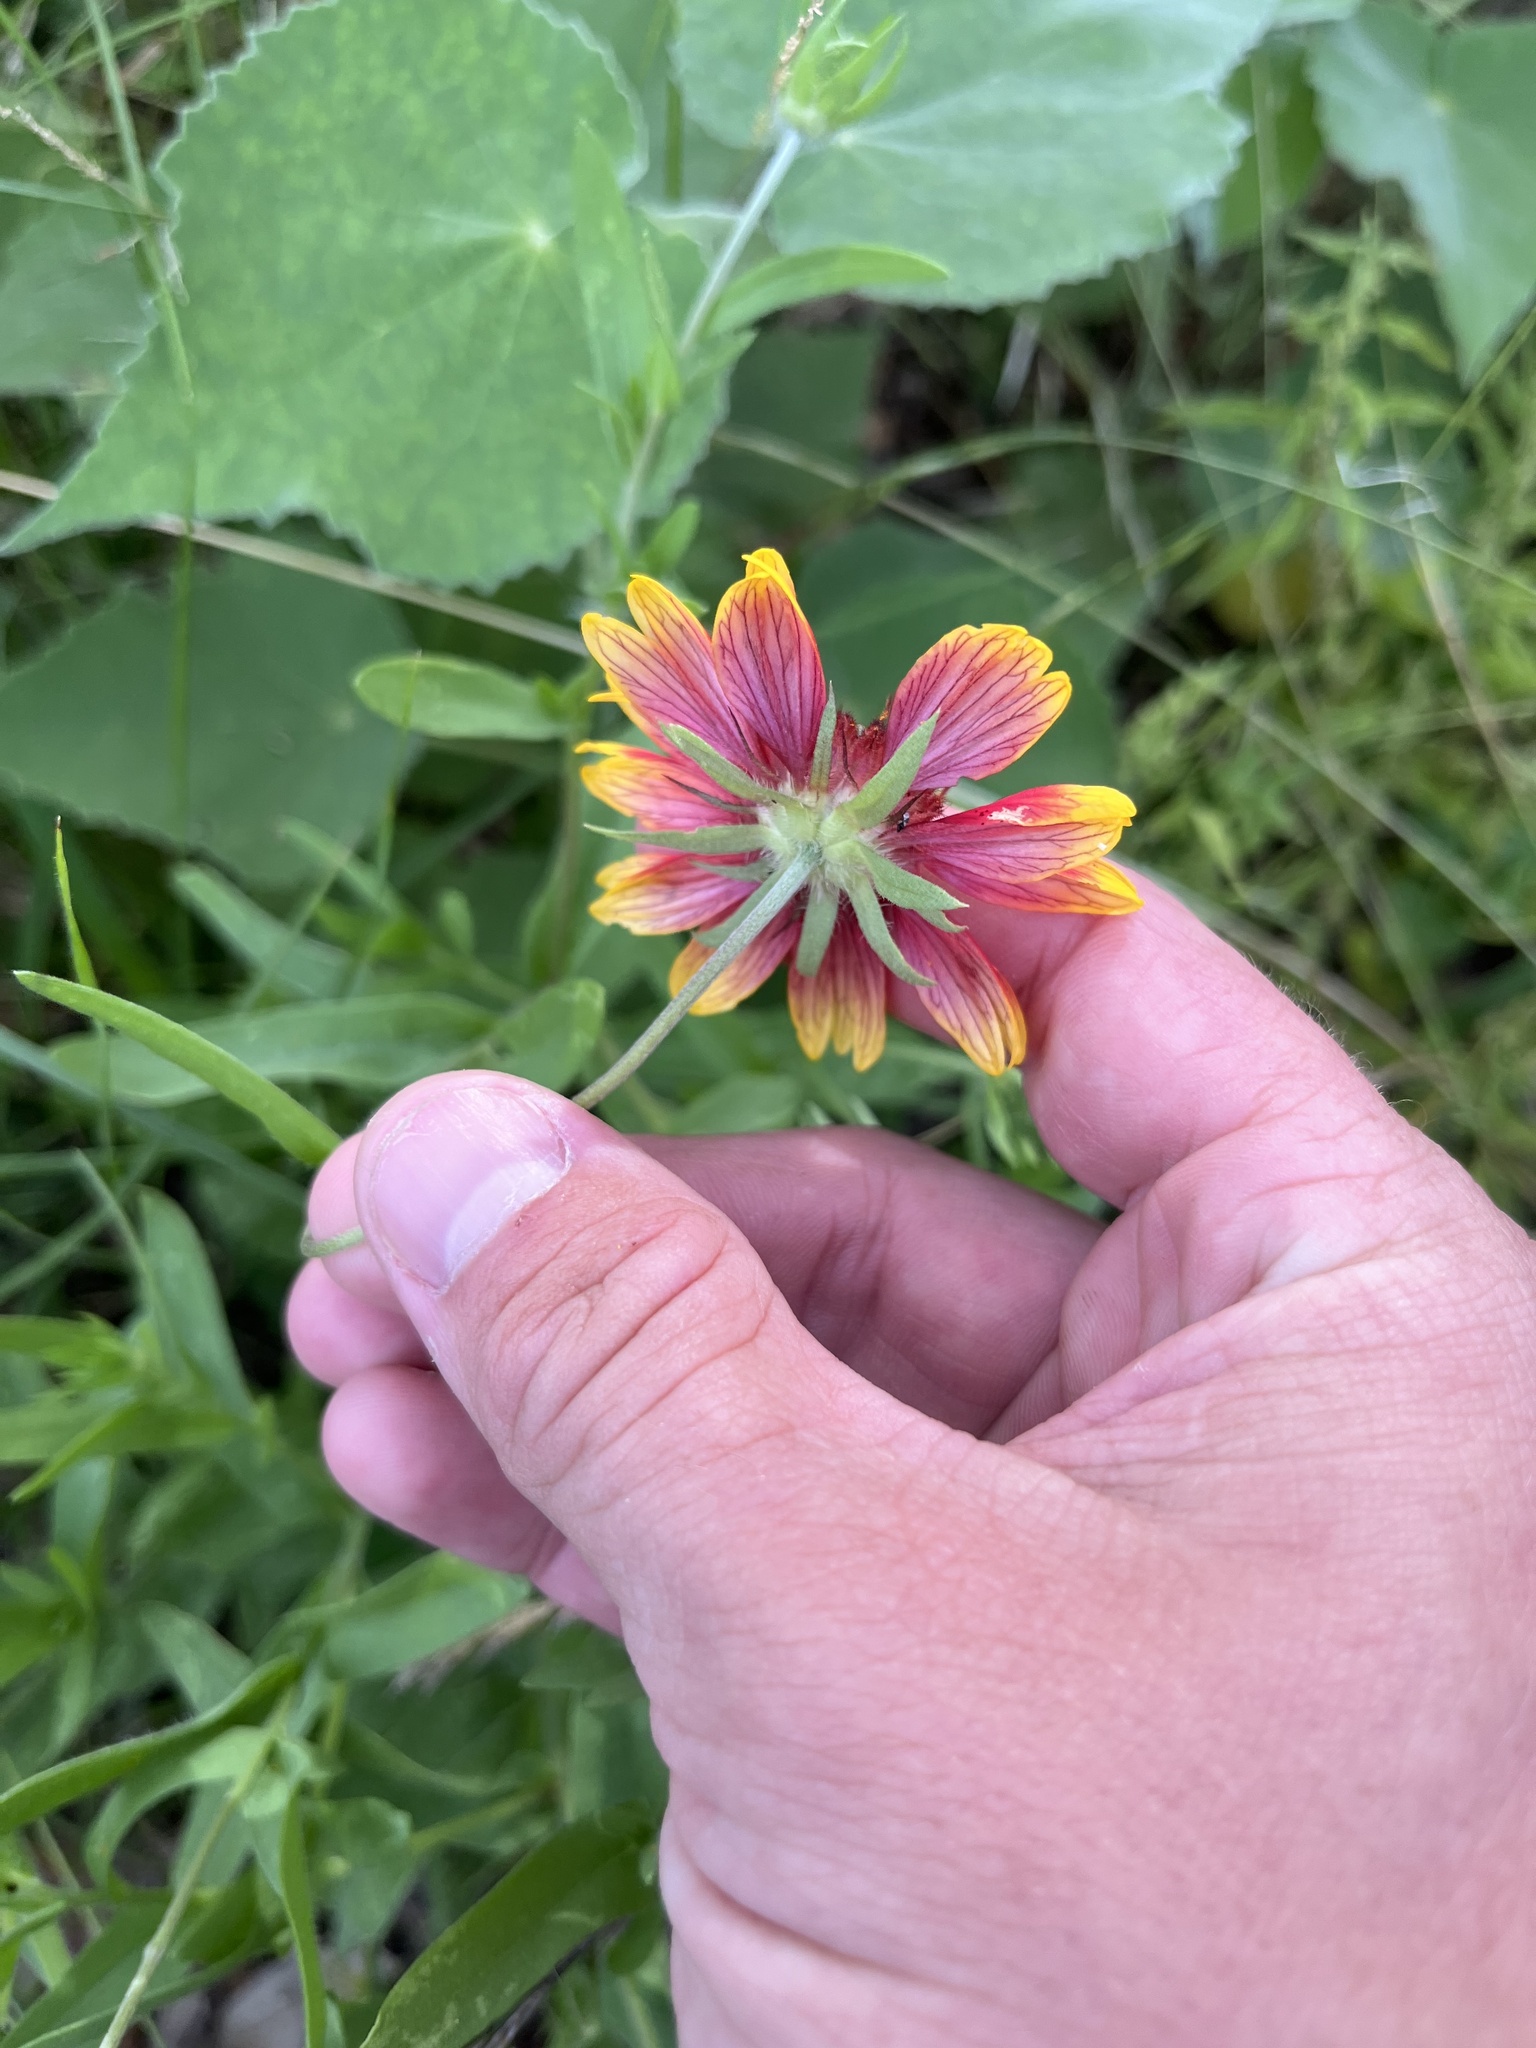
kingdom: Plantae
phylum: Tracheophyta
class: Magnoliopsida
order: Asterales
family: Asteraceae
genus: Gaillardia
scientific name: Gaillardia pulchella
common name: Firewheel
